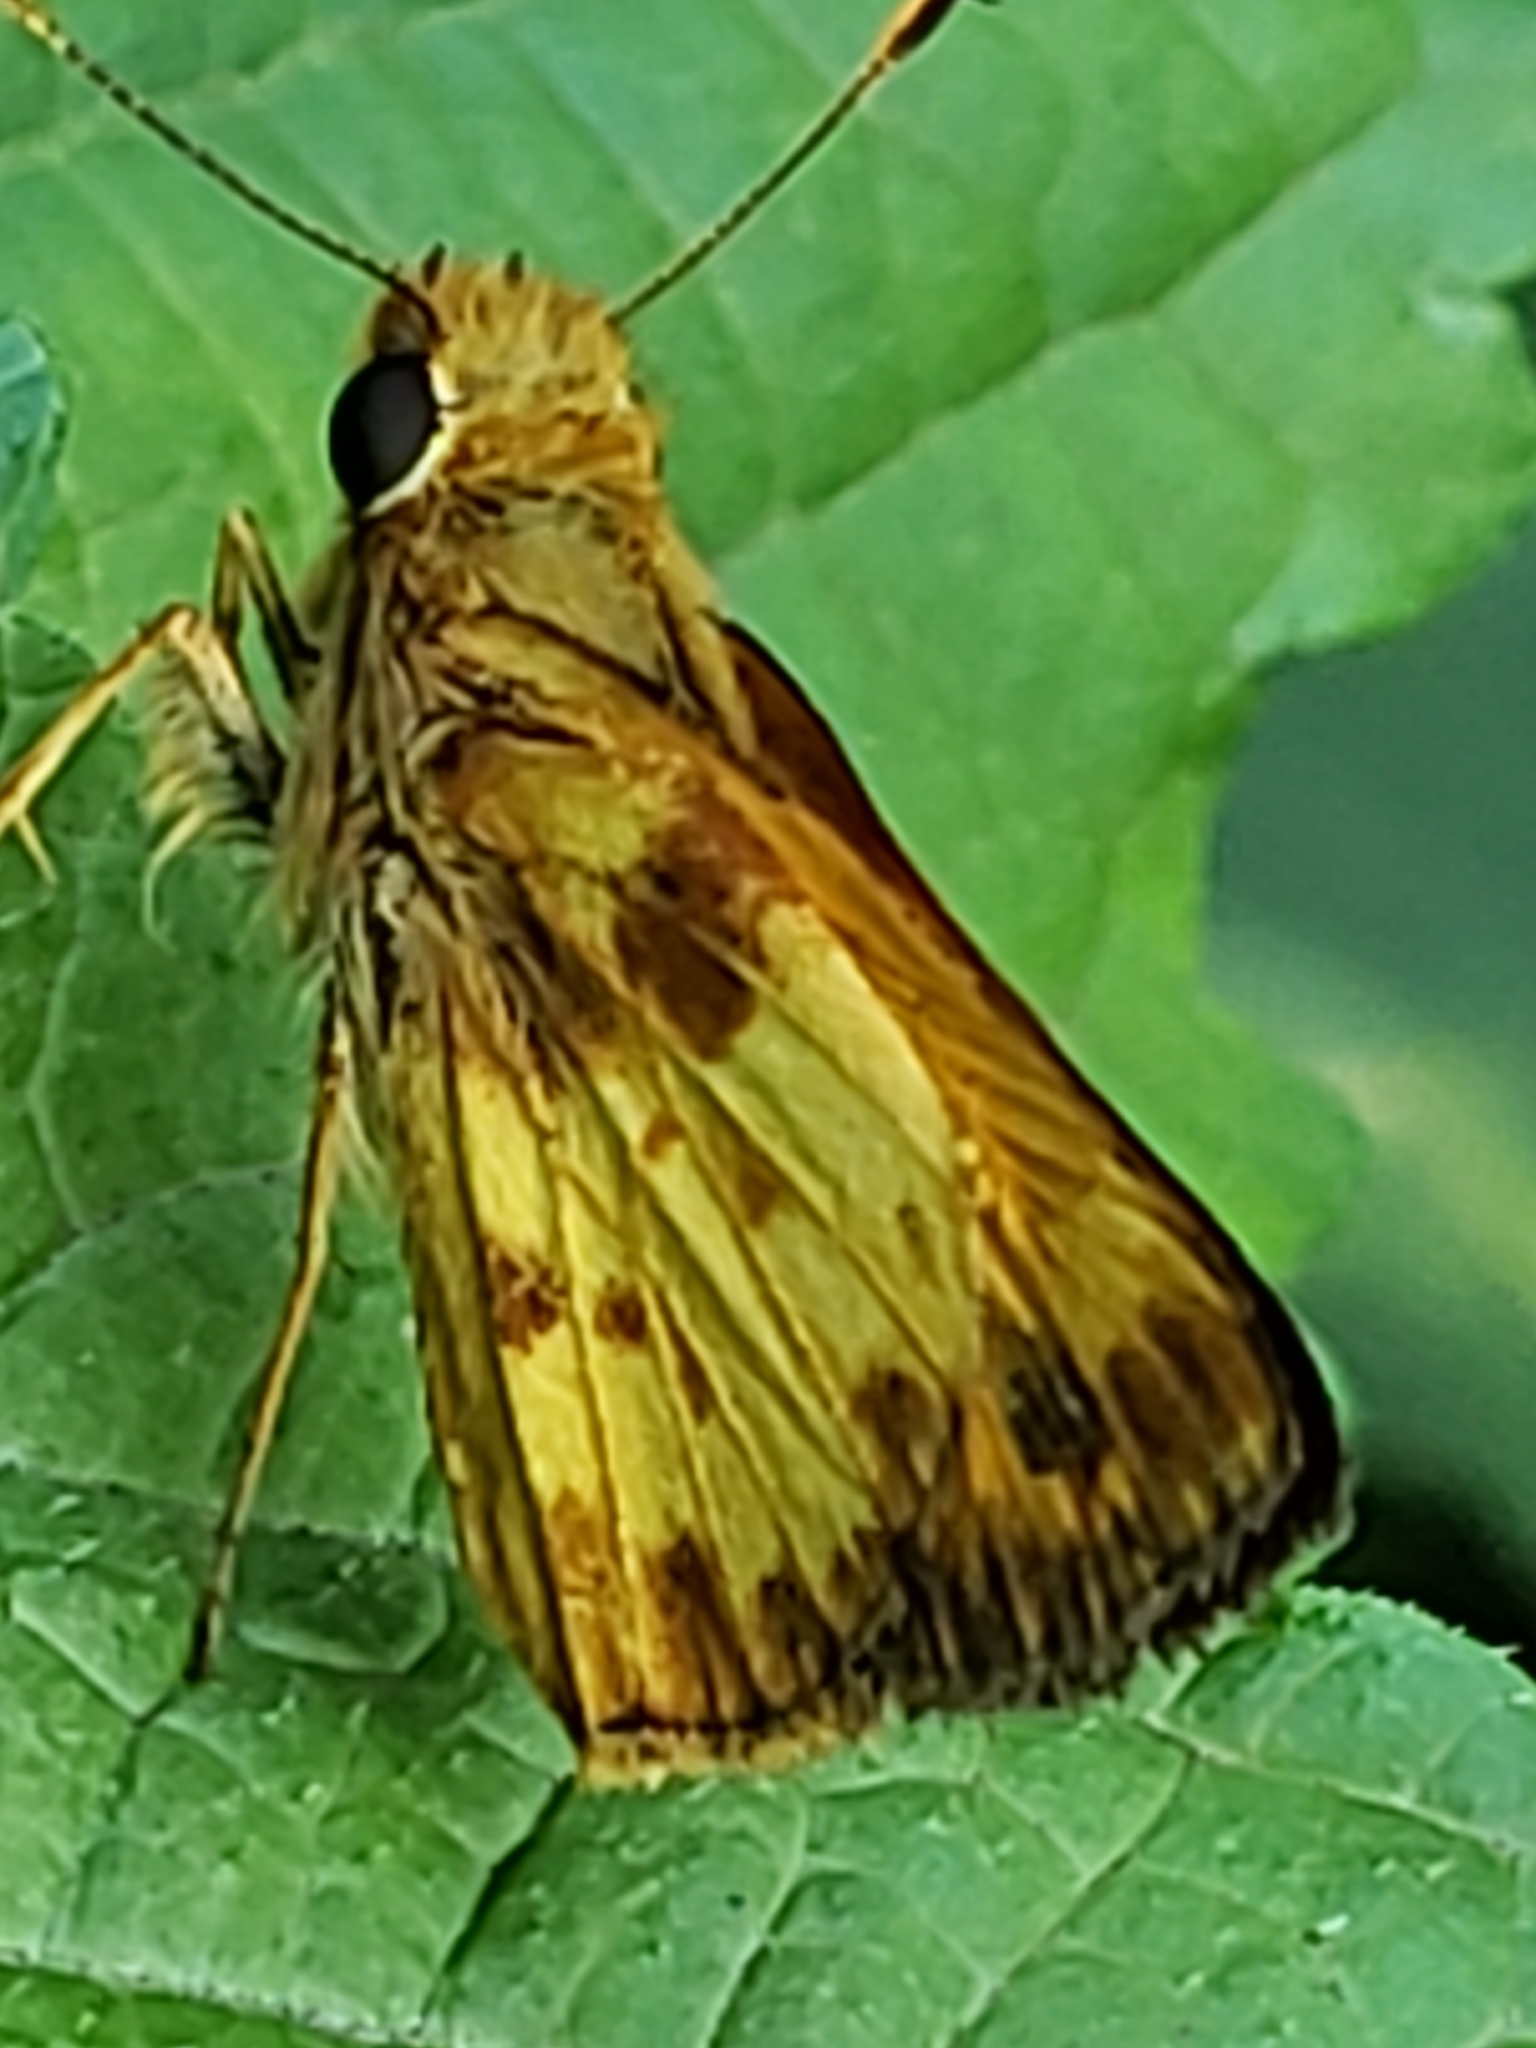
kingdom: Animalia
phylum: Arthropoda
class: Insecta
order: Lepidoptera
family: Hesperiidae
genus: Lon
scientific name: Lon zabulon
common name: Zabulon skipper
